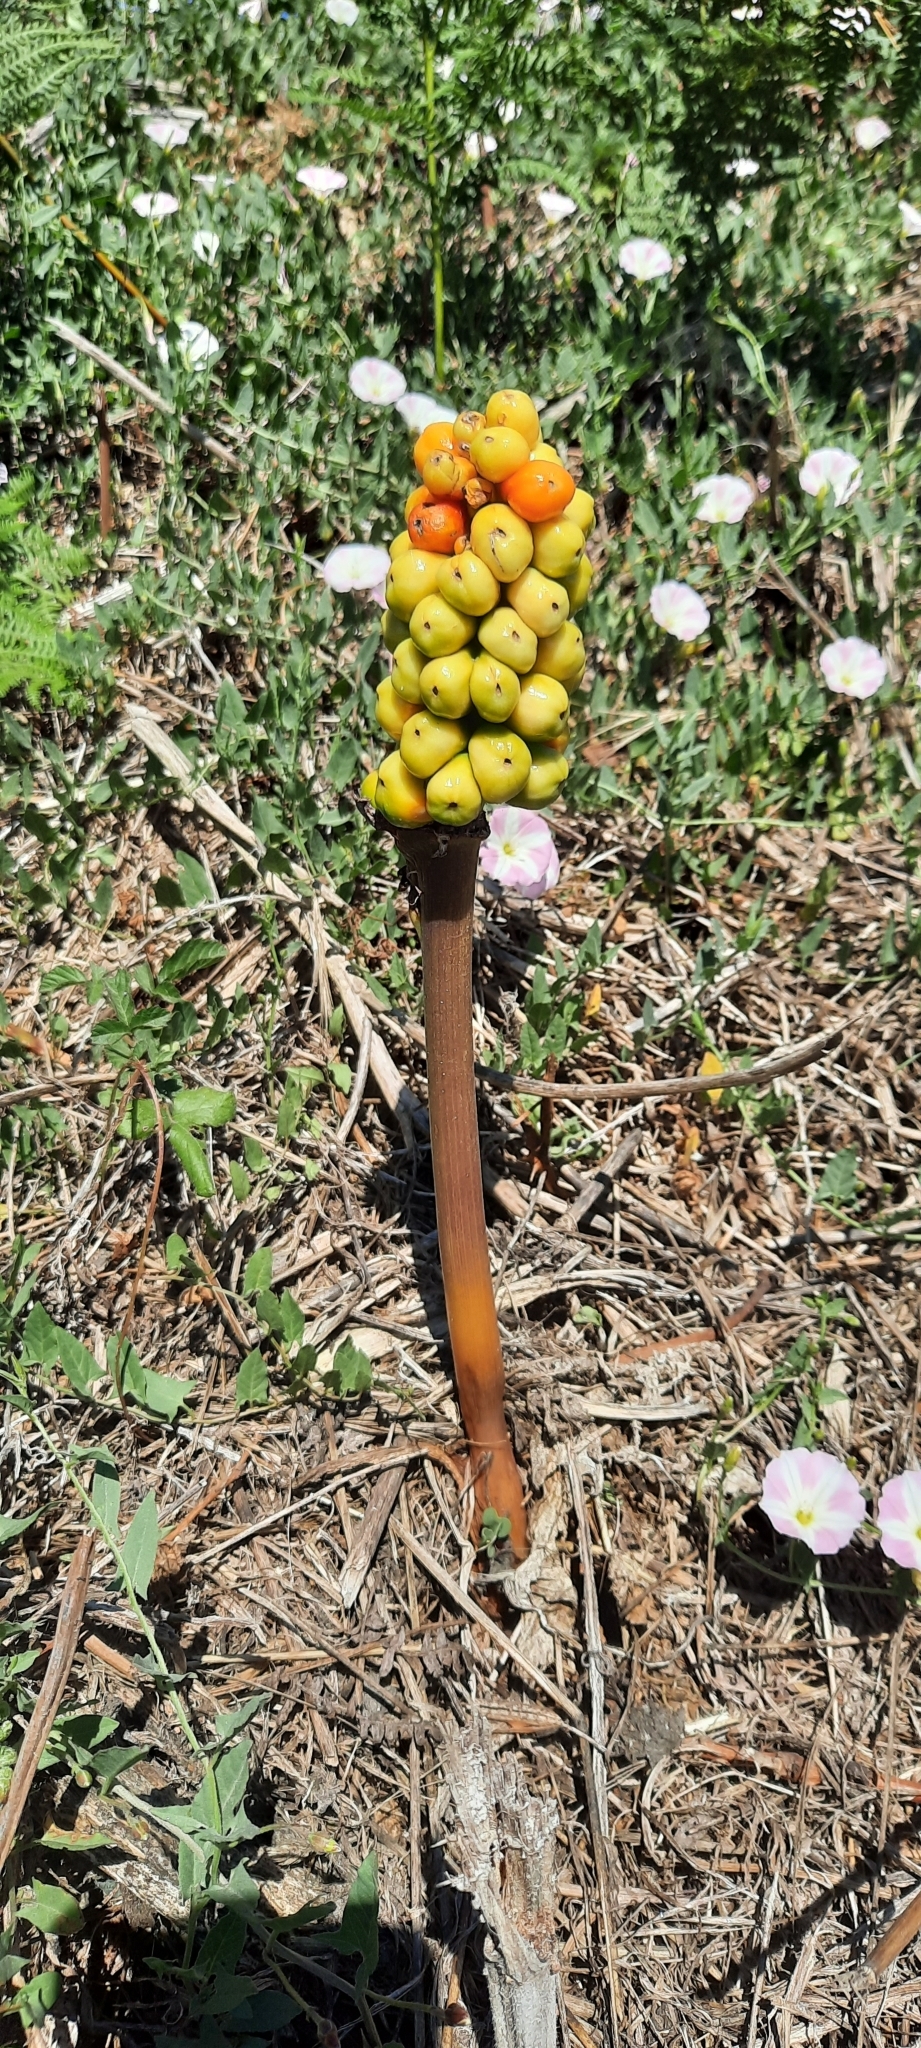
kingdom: Plantae
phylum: Tracheophyta
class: Liliopsida
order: Alismatales
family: Araceae
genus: Arum
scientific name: Arum italicum
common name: Italian lords-and-ladies
